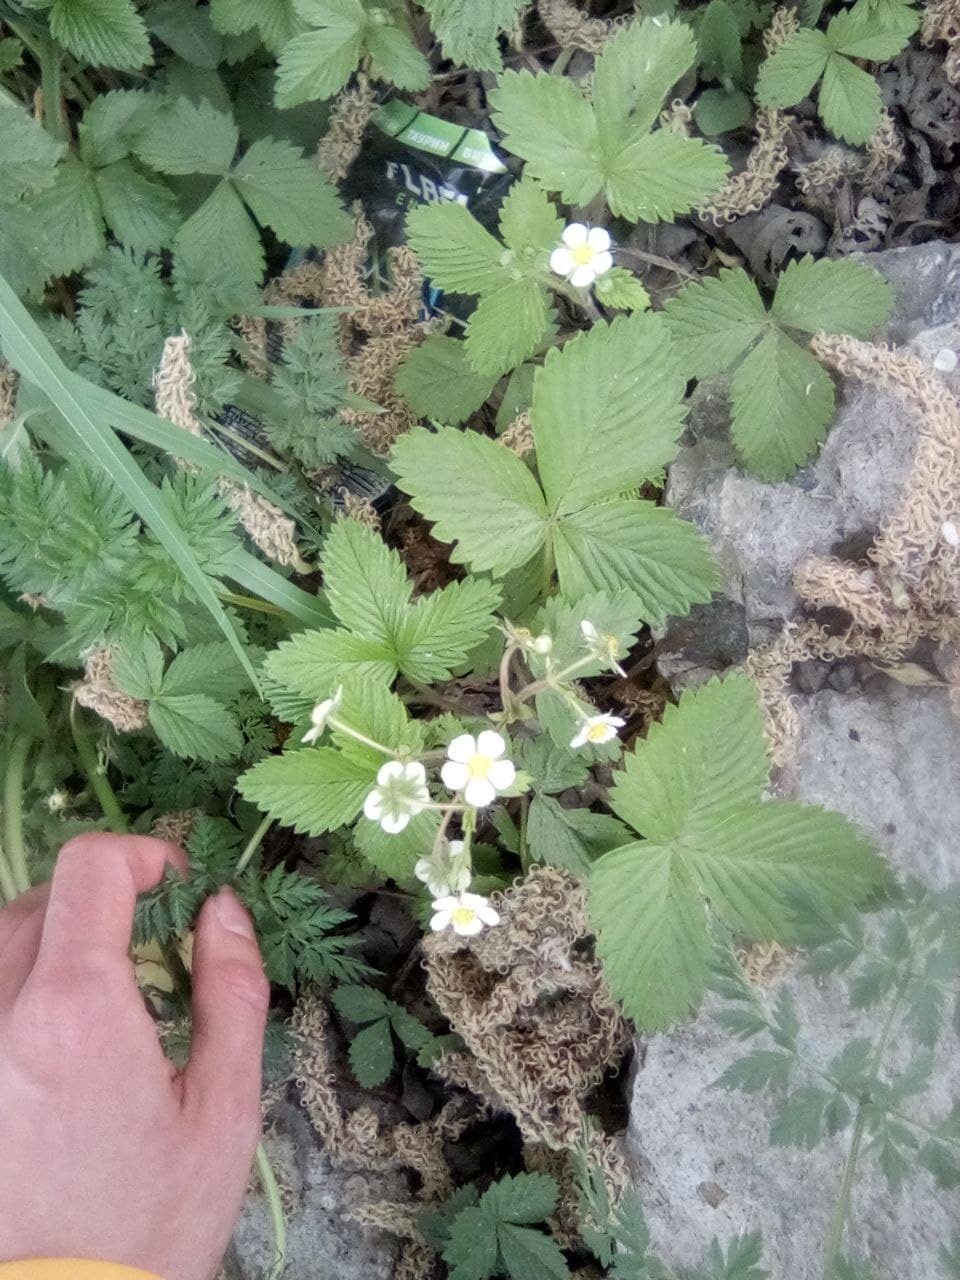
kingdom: Plantae
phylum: Tracheophyta
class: Magnoliopsida
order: Rosales
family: Rosaceae
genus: Fragaria
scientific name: Fragaria vesca
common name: Wild strawberry
